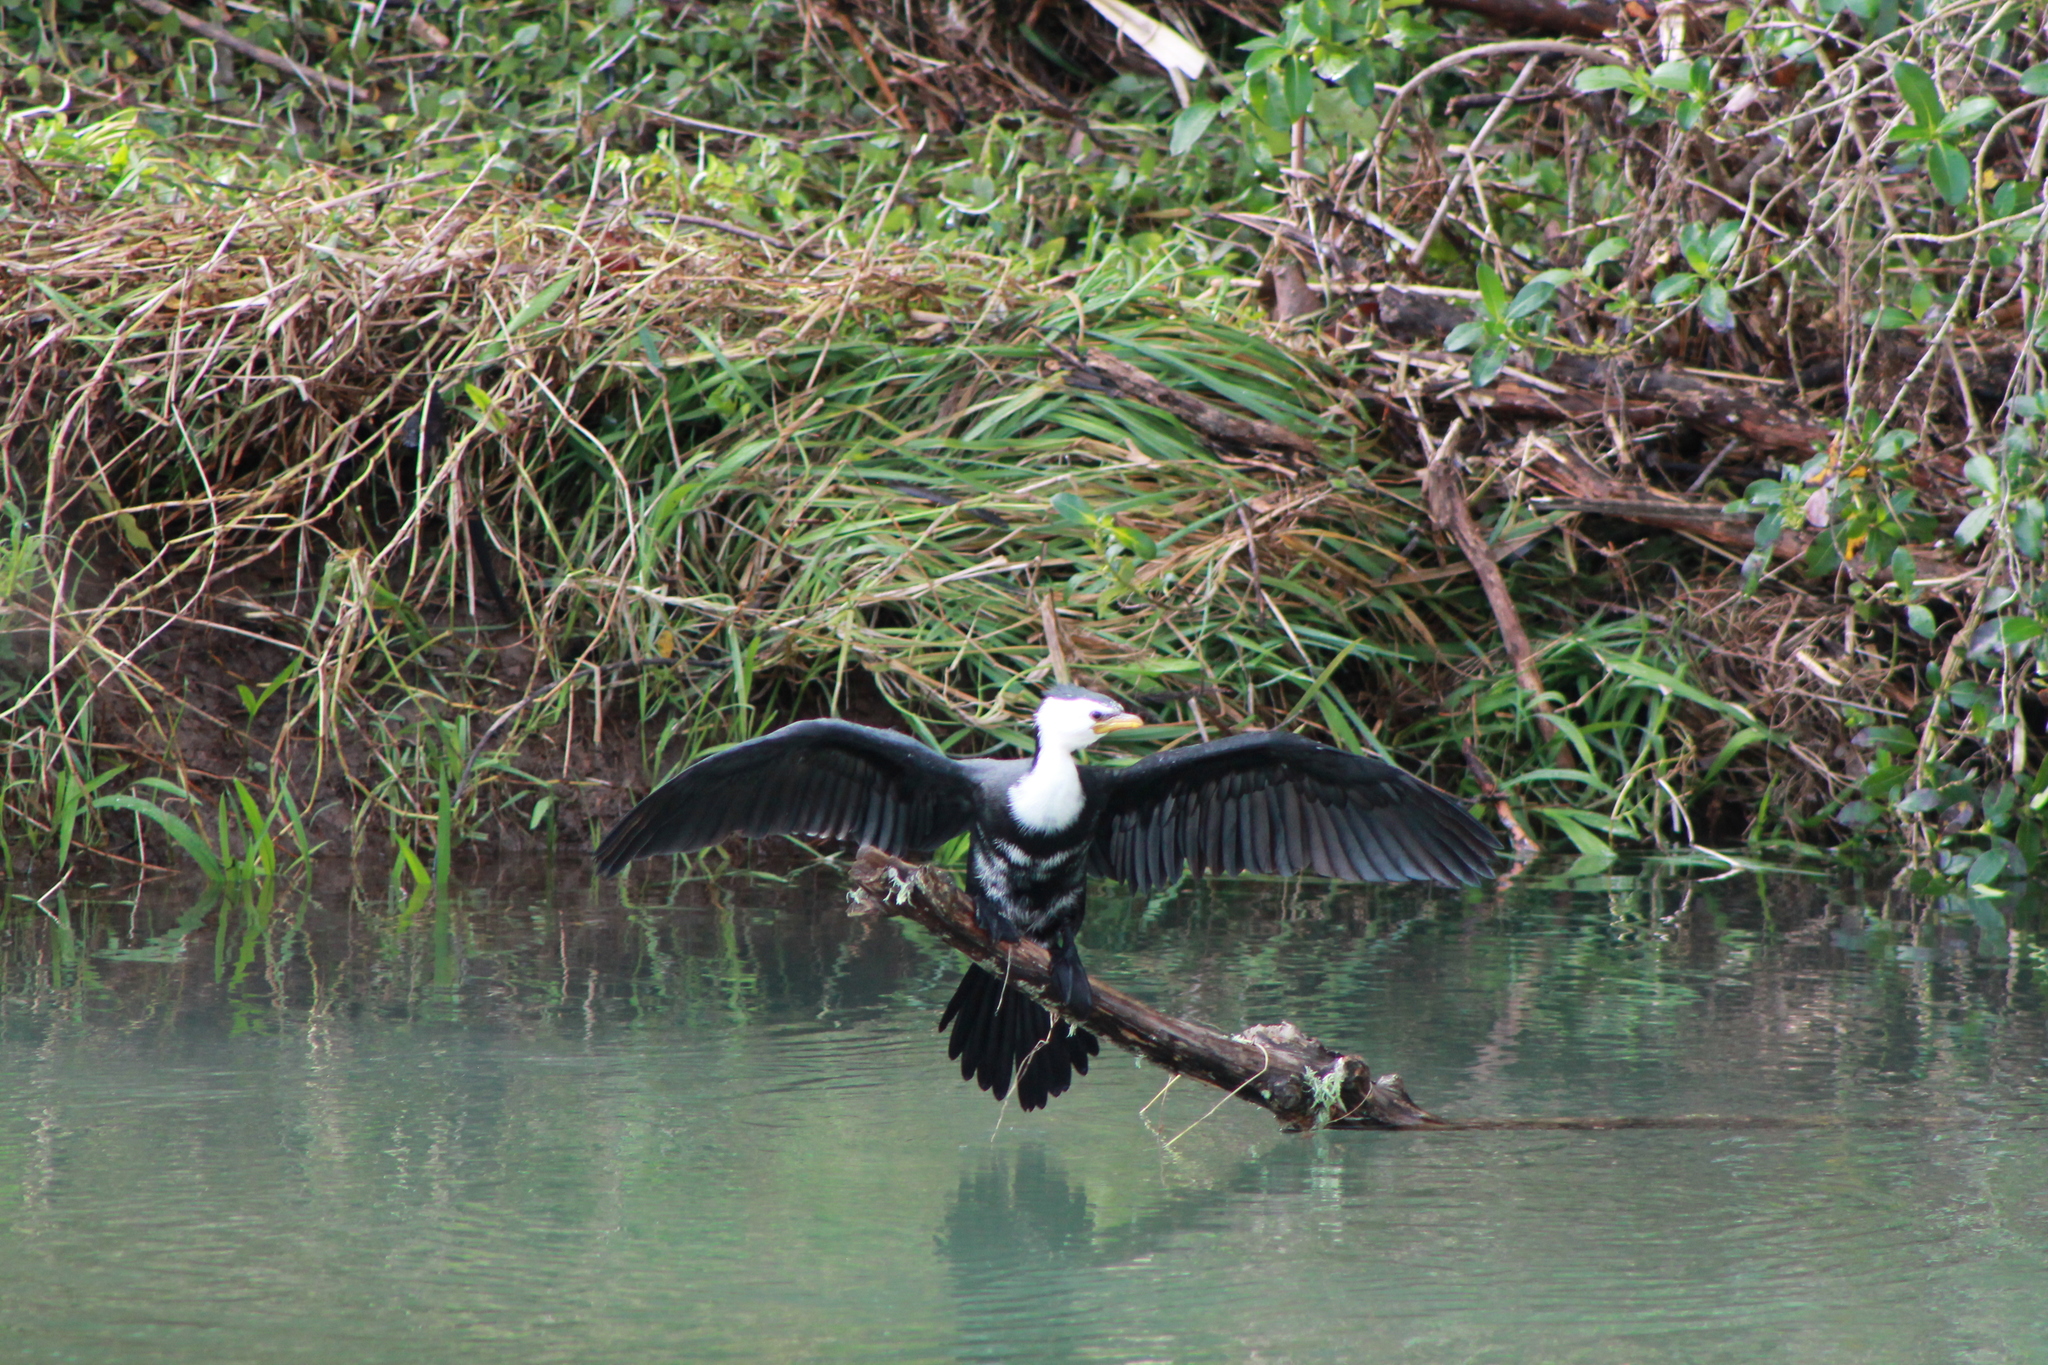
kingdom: Animalia
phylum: Chordata
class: Aves
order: Suliformes
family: Phalacrocoracidae
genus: Microcarbo
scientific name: Microcarbo melanoleucos
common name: Little pied cormorant
